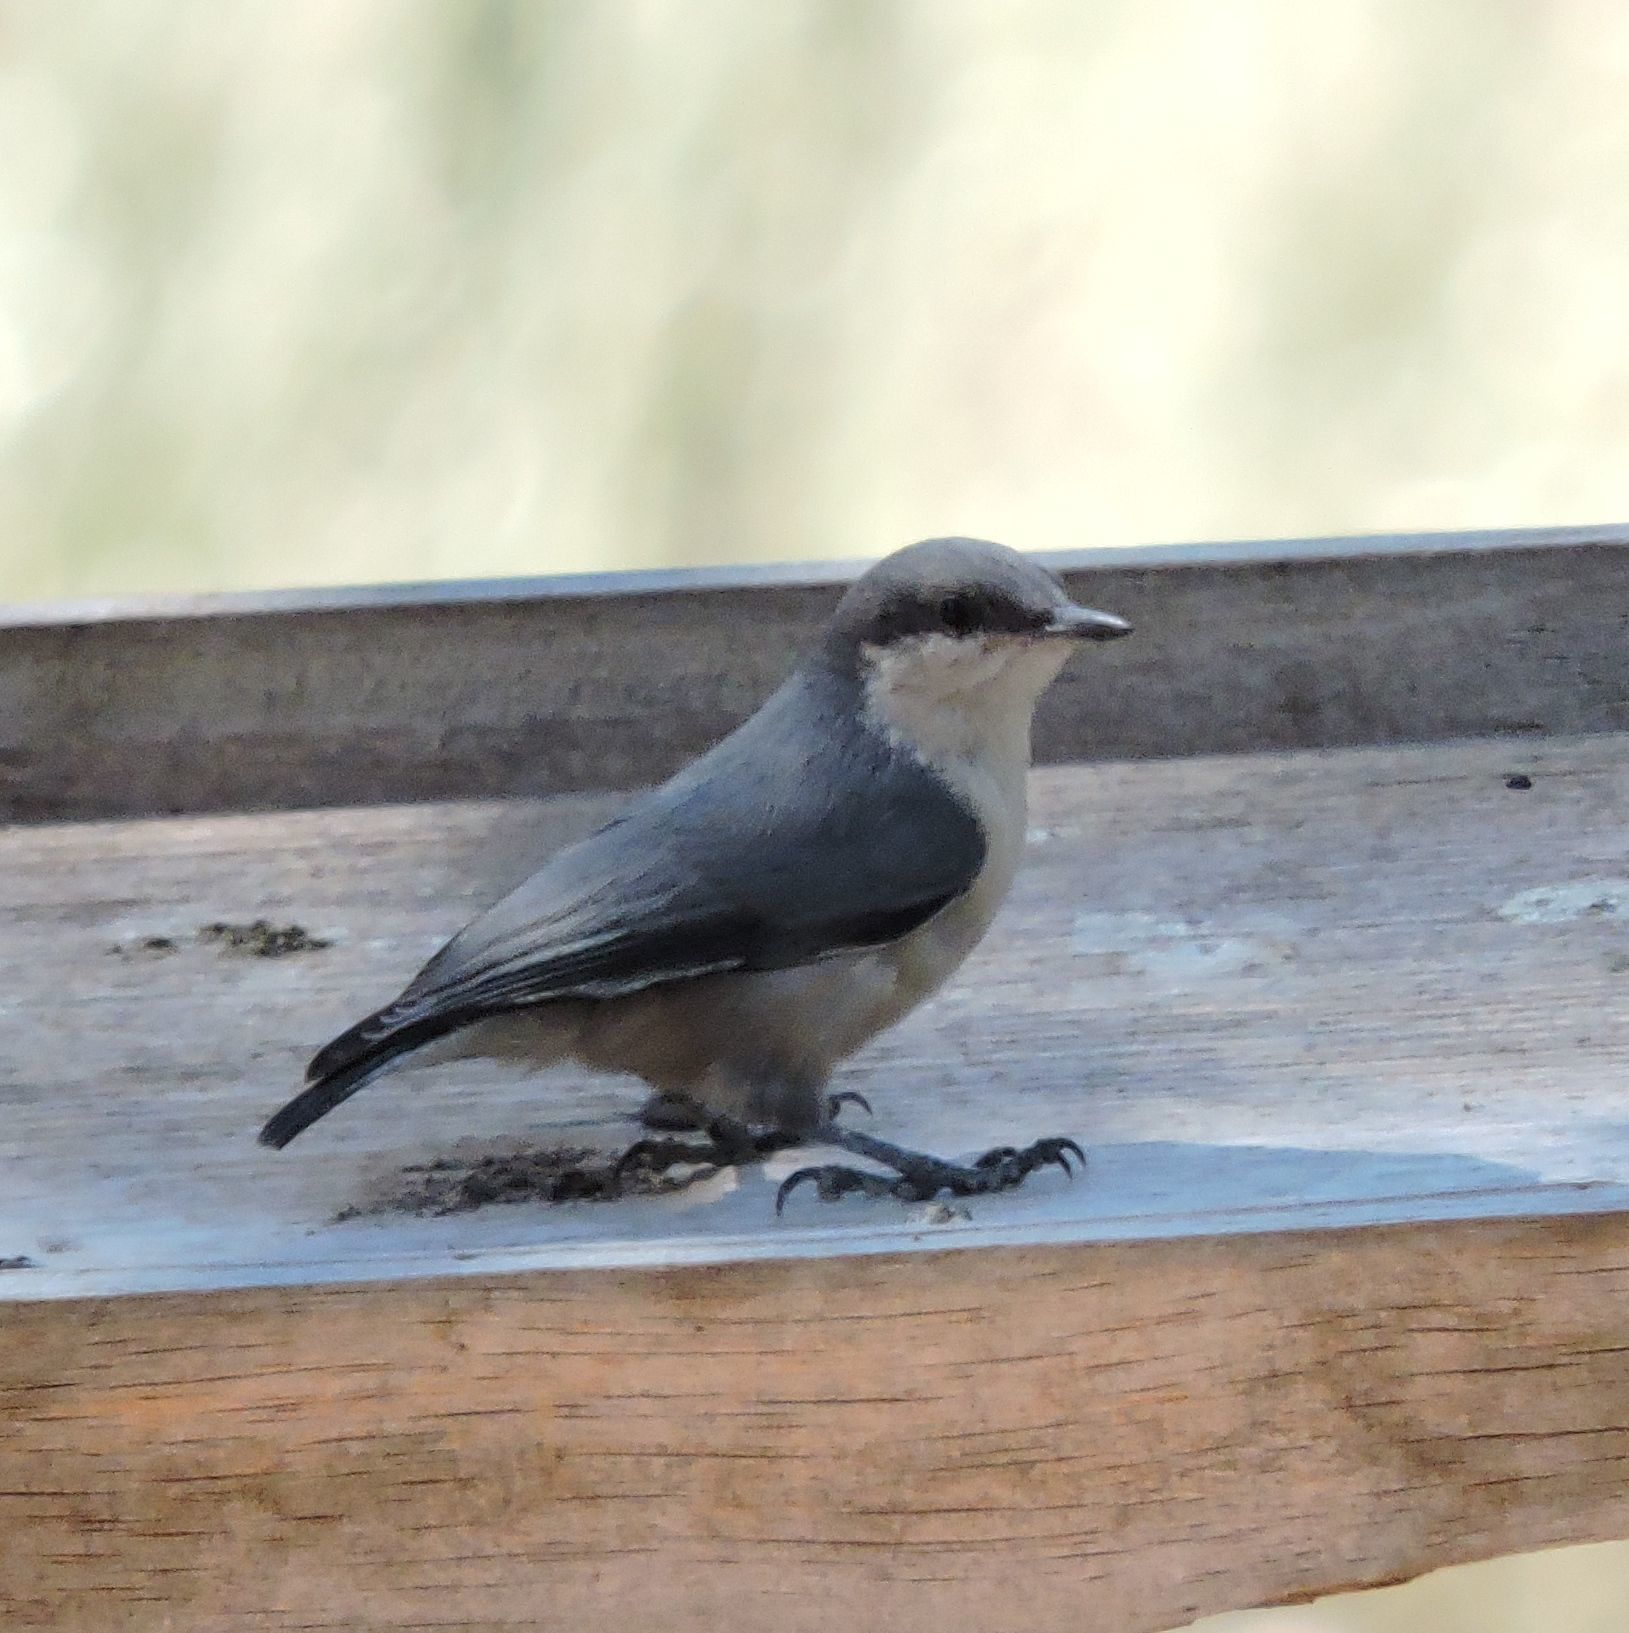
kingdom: Animalia
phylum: Chordata
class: Aves
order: Passeriformes
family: Sittidae
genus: Sitta
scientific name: Sitta pygmaea
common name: Pygmy nuthatch
